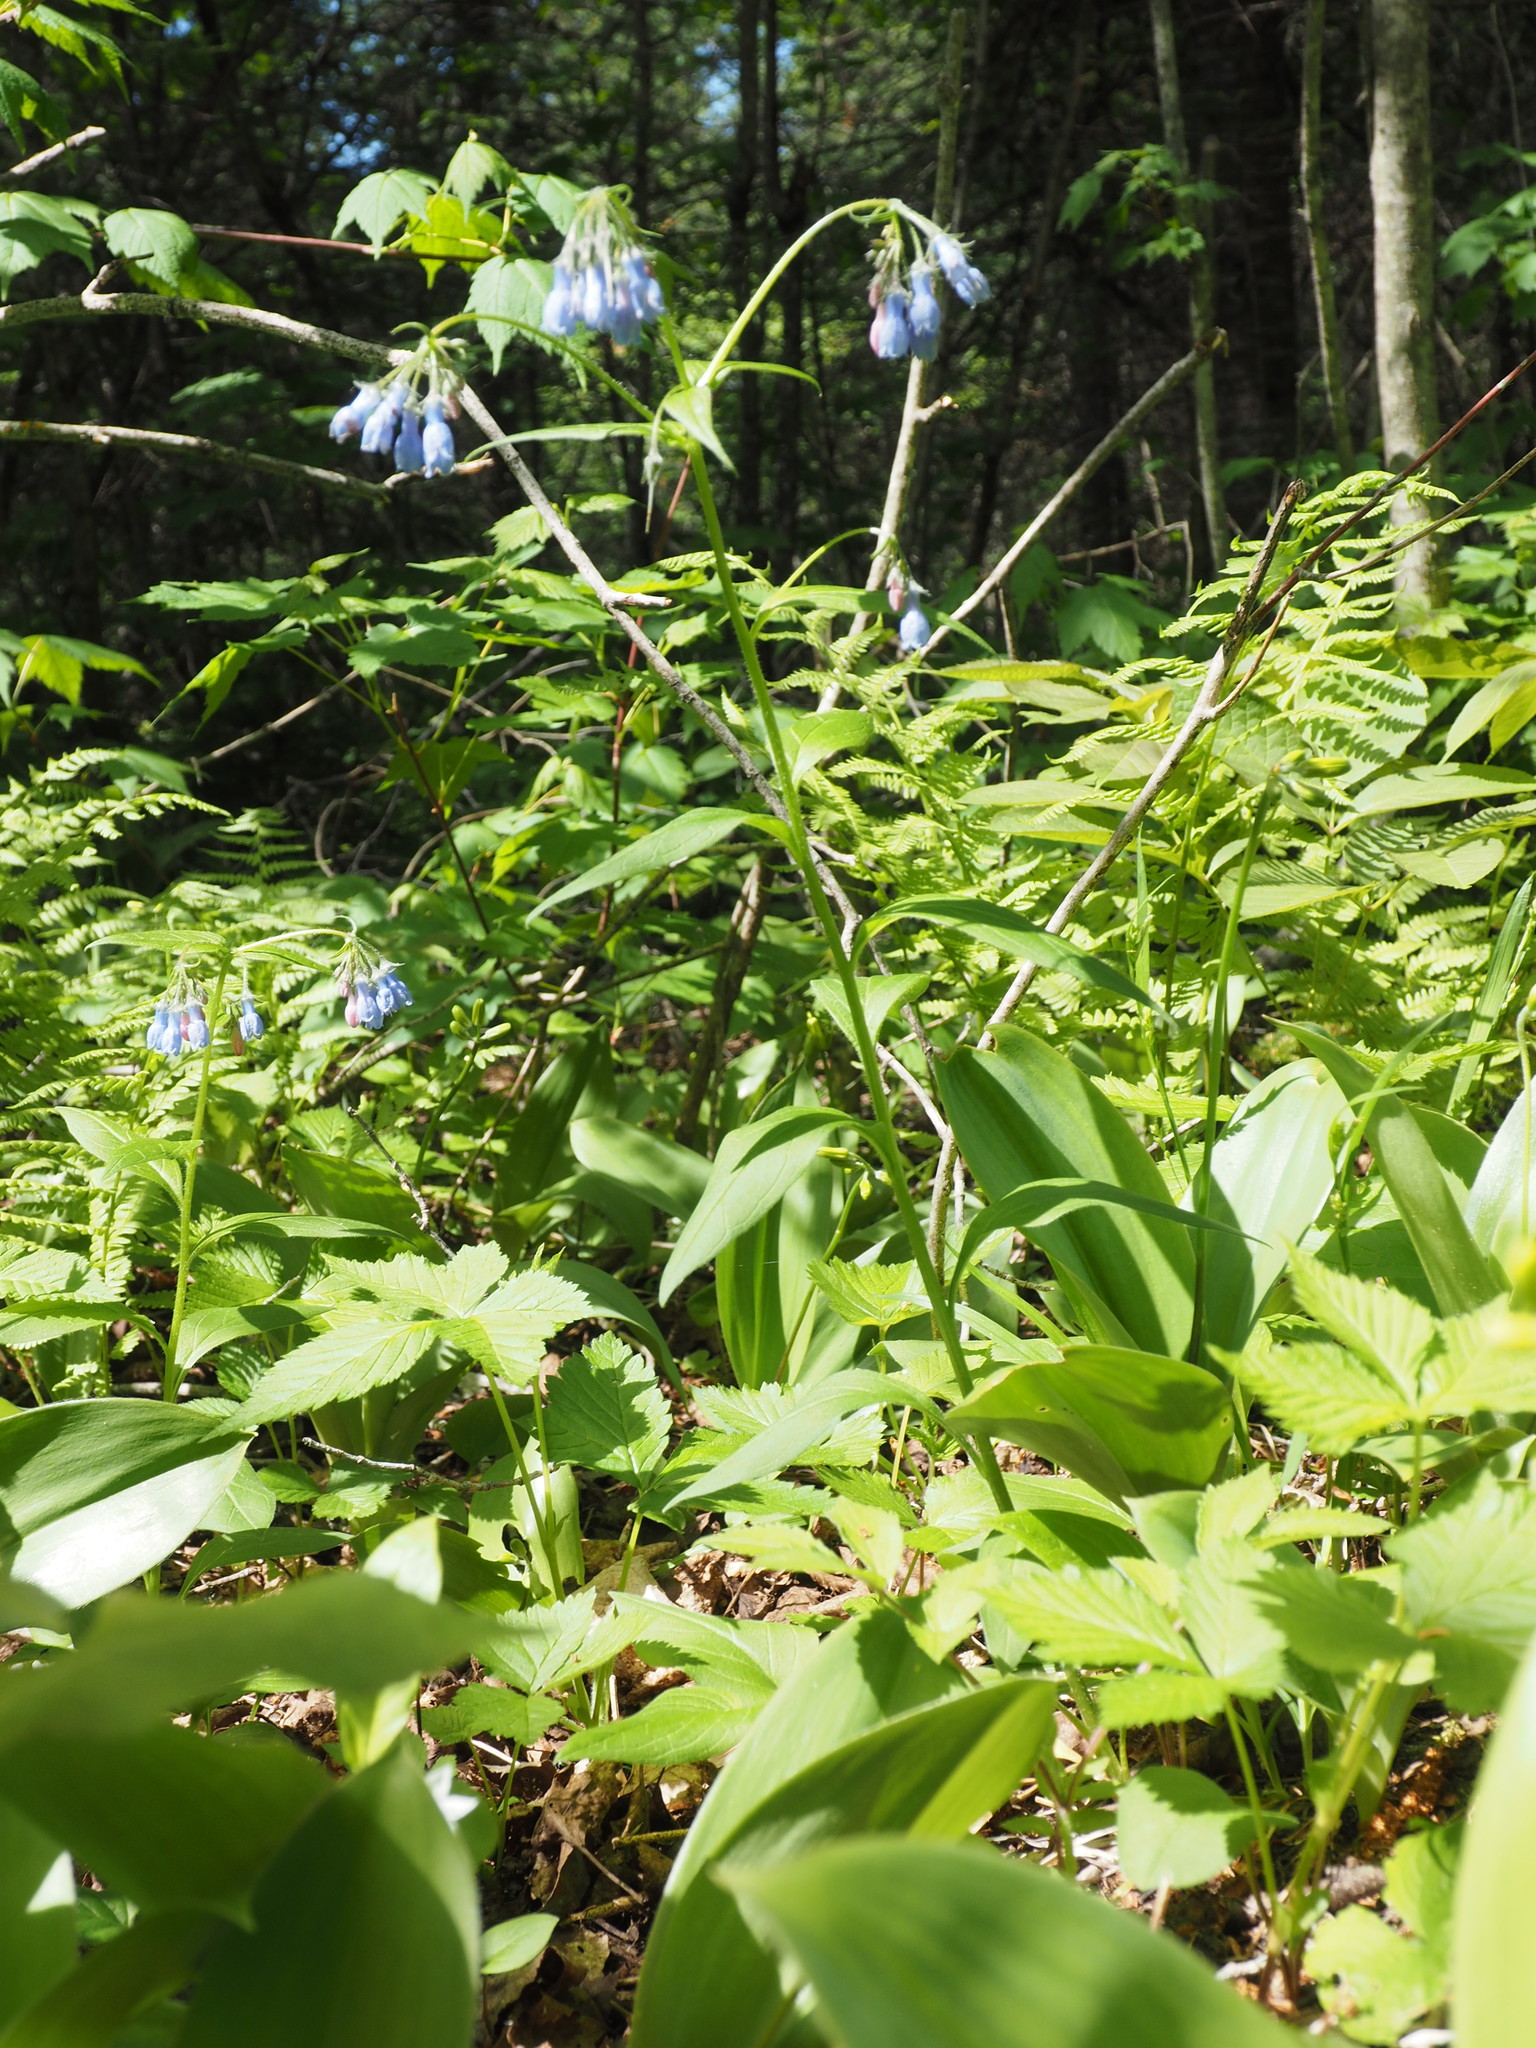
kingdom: Plantae
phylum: Tracheophyta
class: Magnoliopsida
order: Boraginales
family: Boraginaceae
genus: Mertensia
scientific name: Mertensia paniculata
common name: Panicled bluebells
